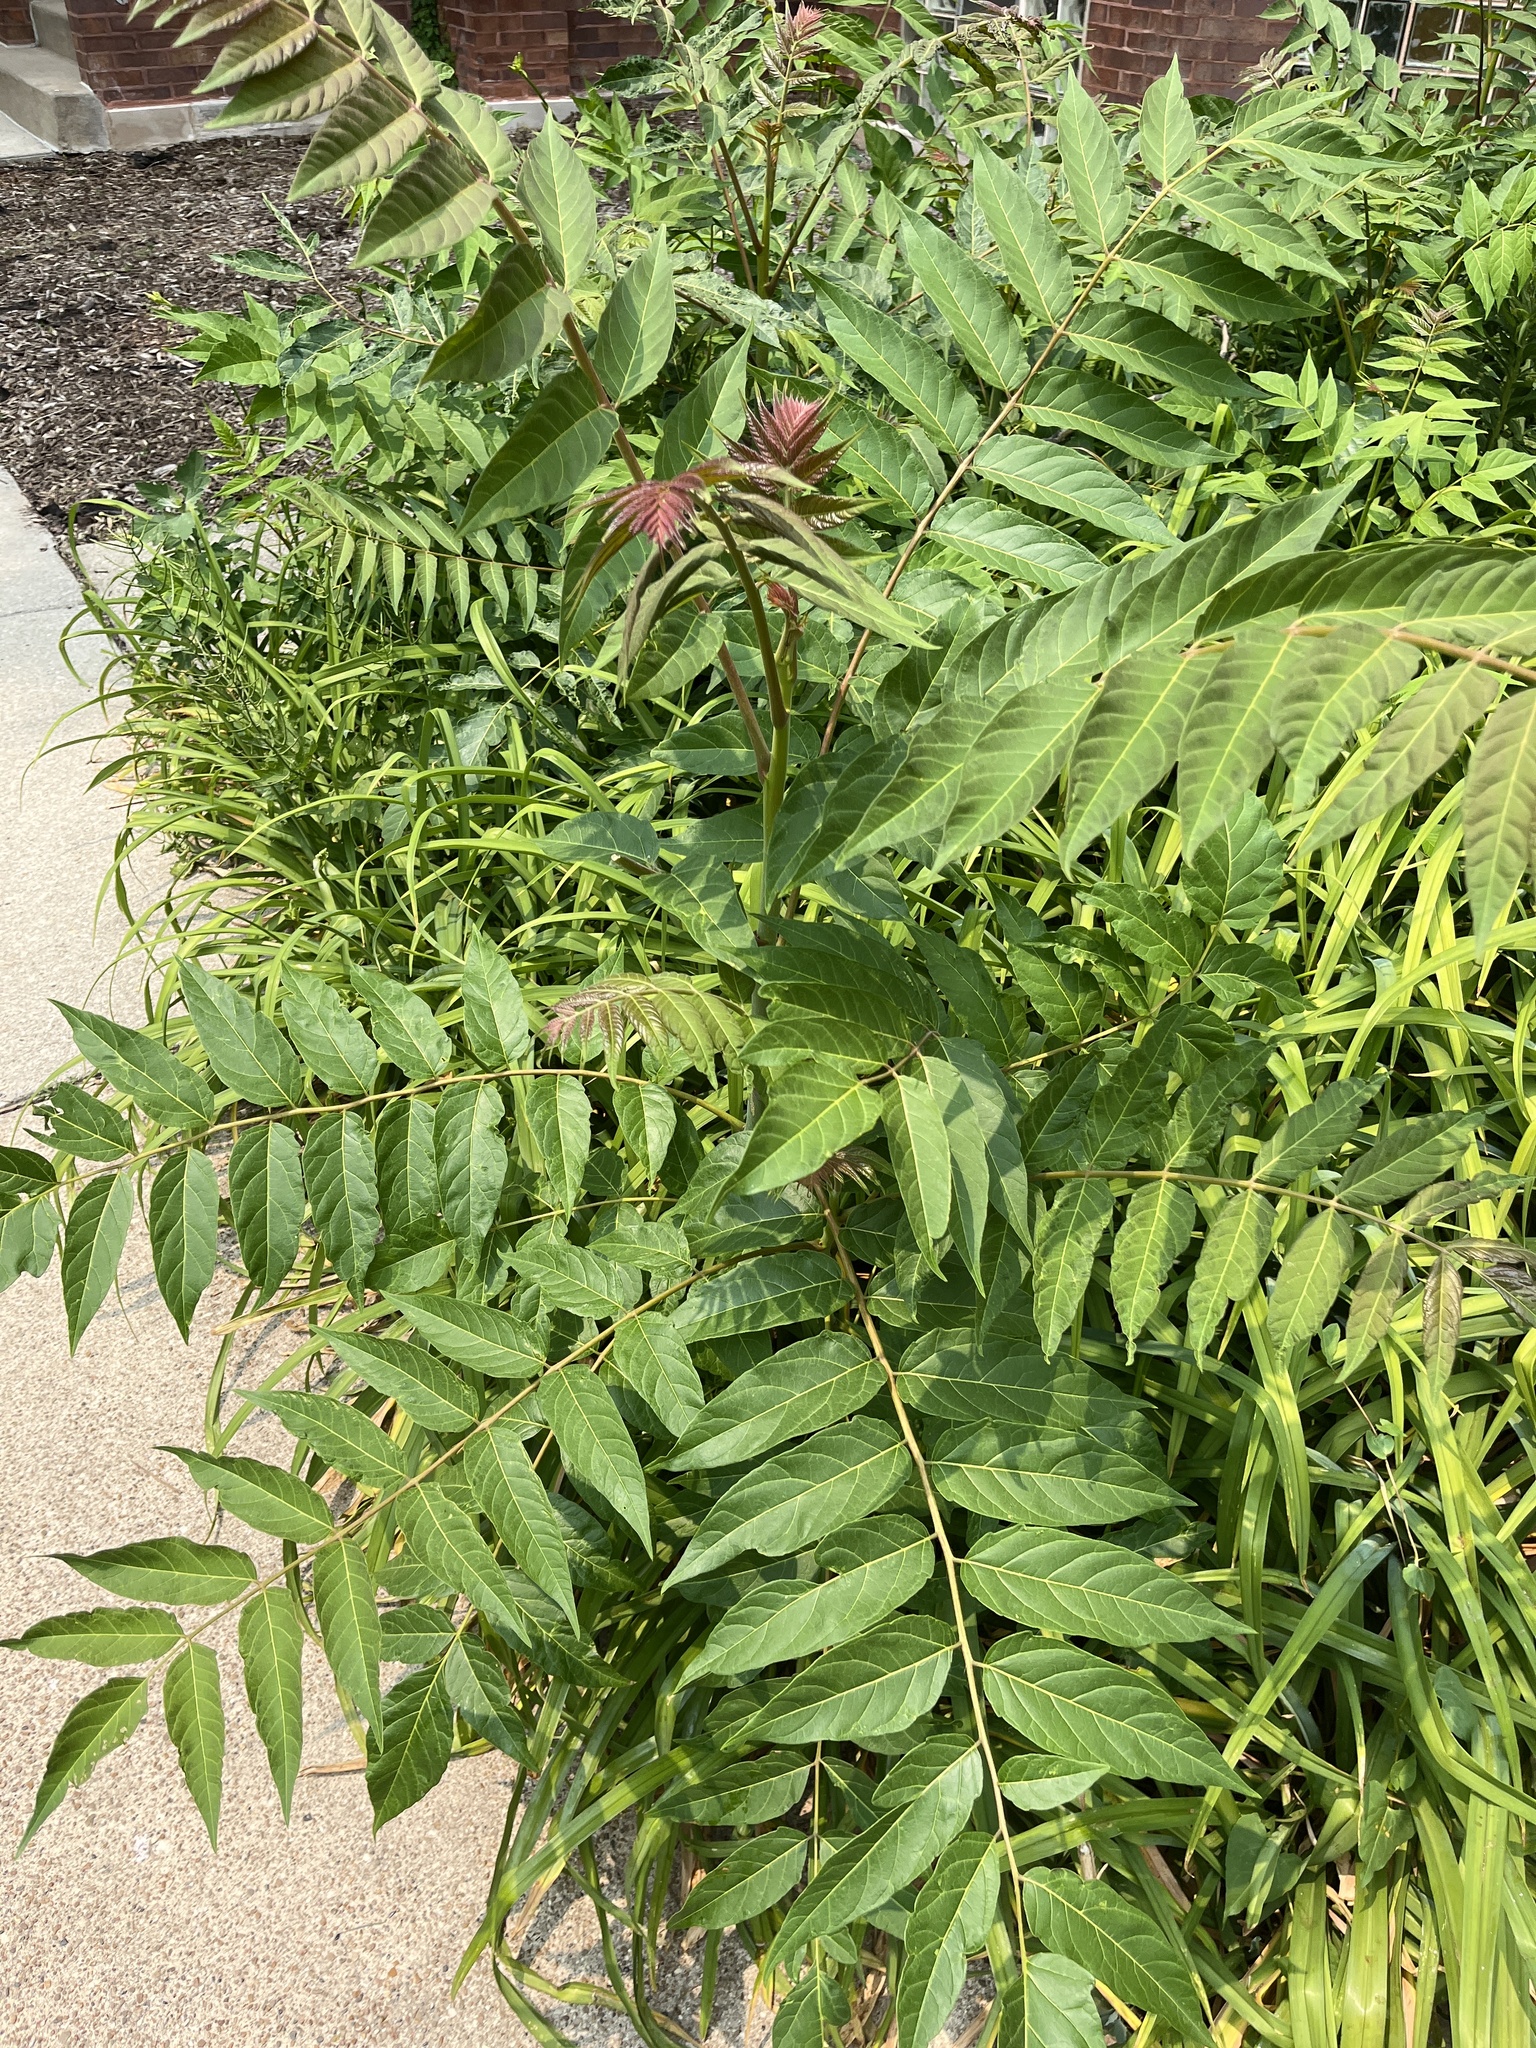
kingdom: Plantae
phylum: Tracheophyta
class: Magnoliopsida
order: Sapindales
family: Simaroubaceae
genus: Ailanthus
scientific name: Ailanthus altissima
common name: Tree-of-heaven
